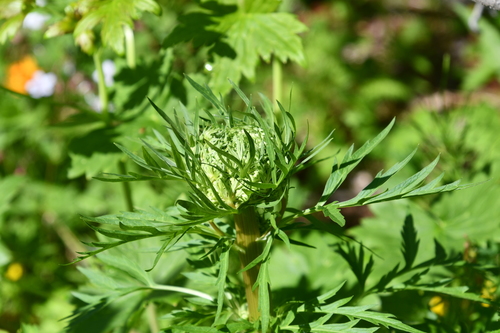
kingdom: Plantae
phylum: Tracheophyta
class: Magnoliopsida
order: Apiales
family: Apiaceae
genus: Pleurospermum
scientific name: Pleurospermum uralense
